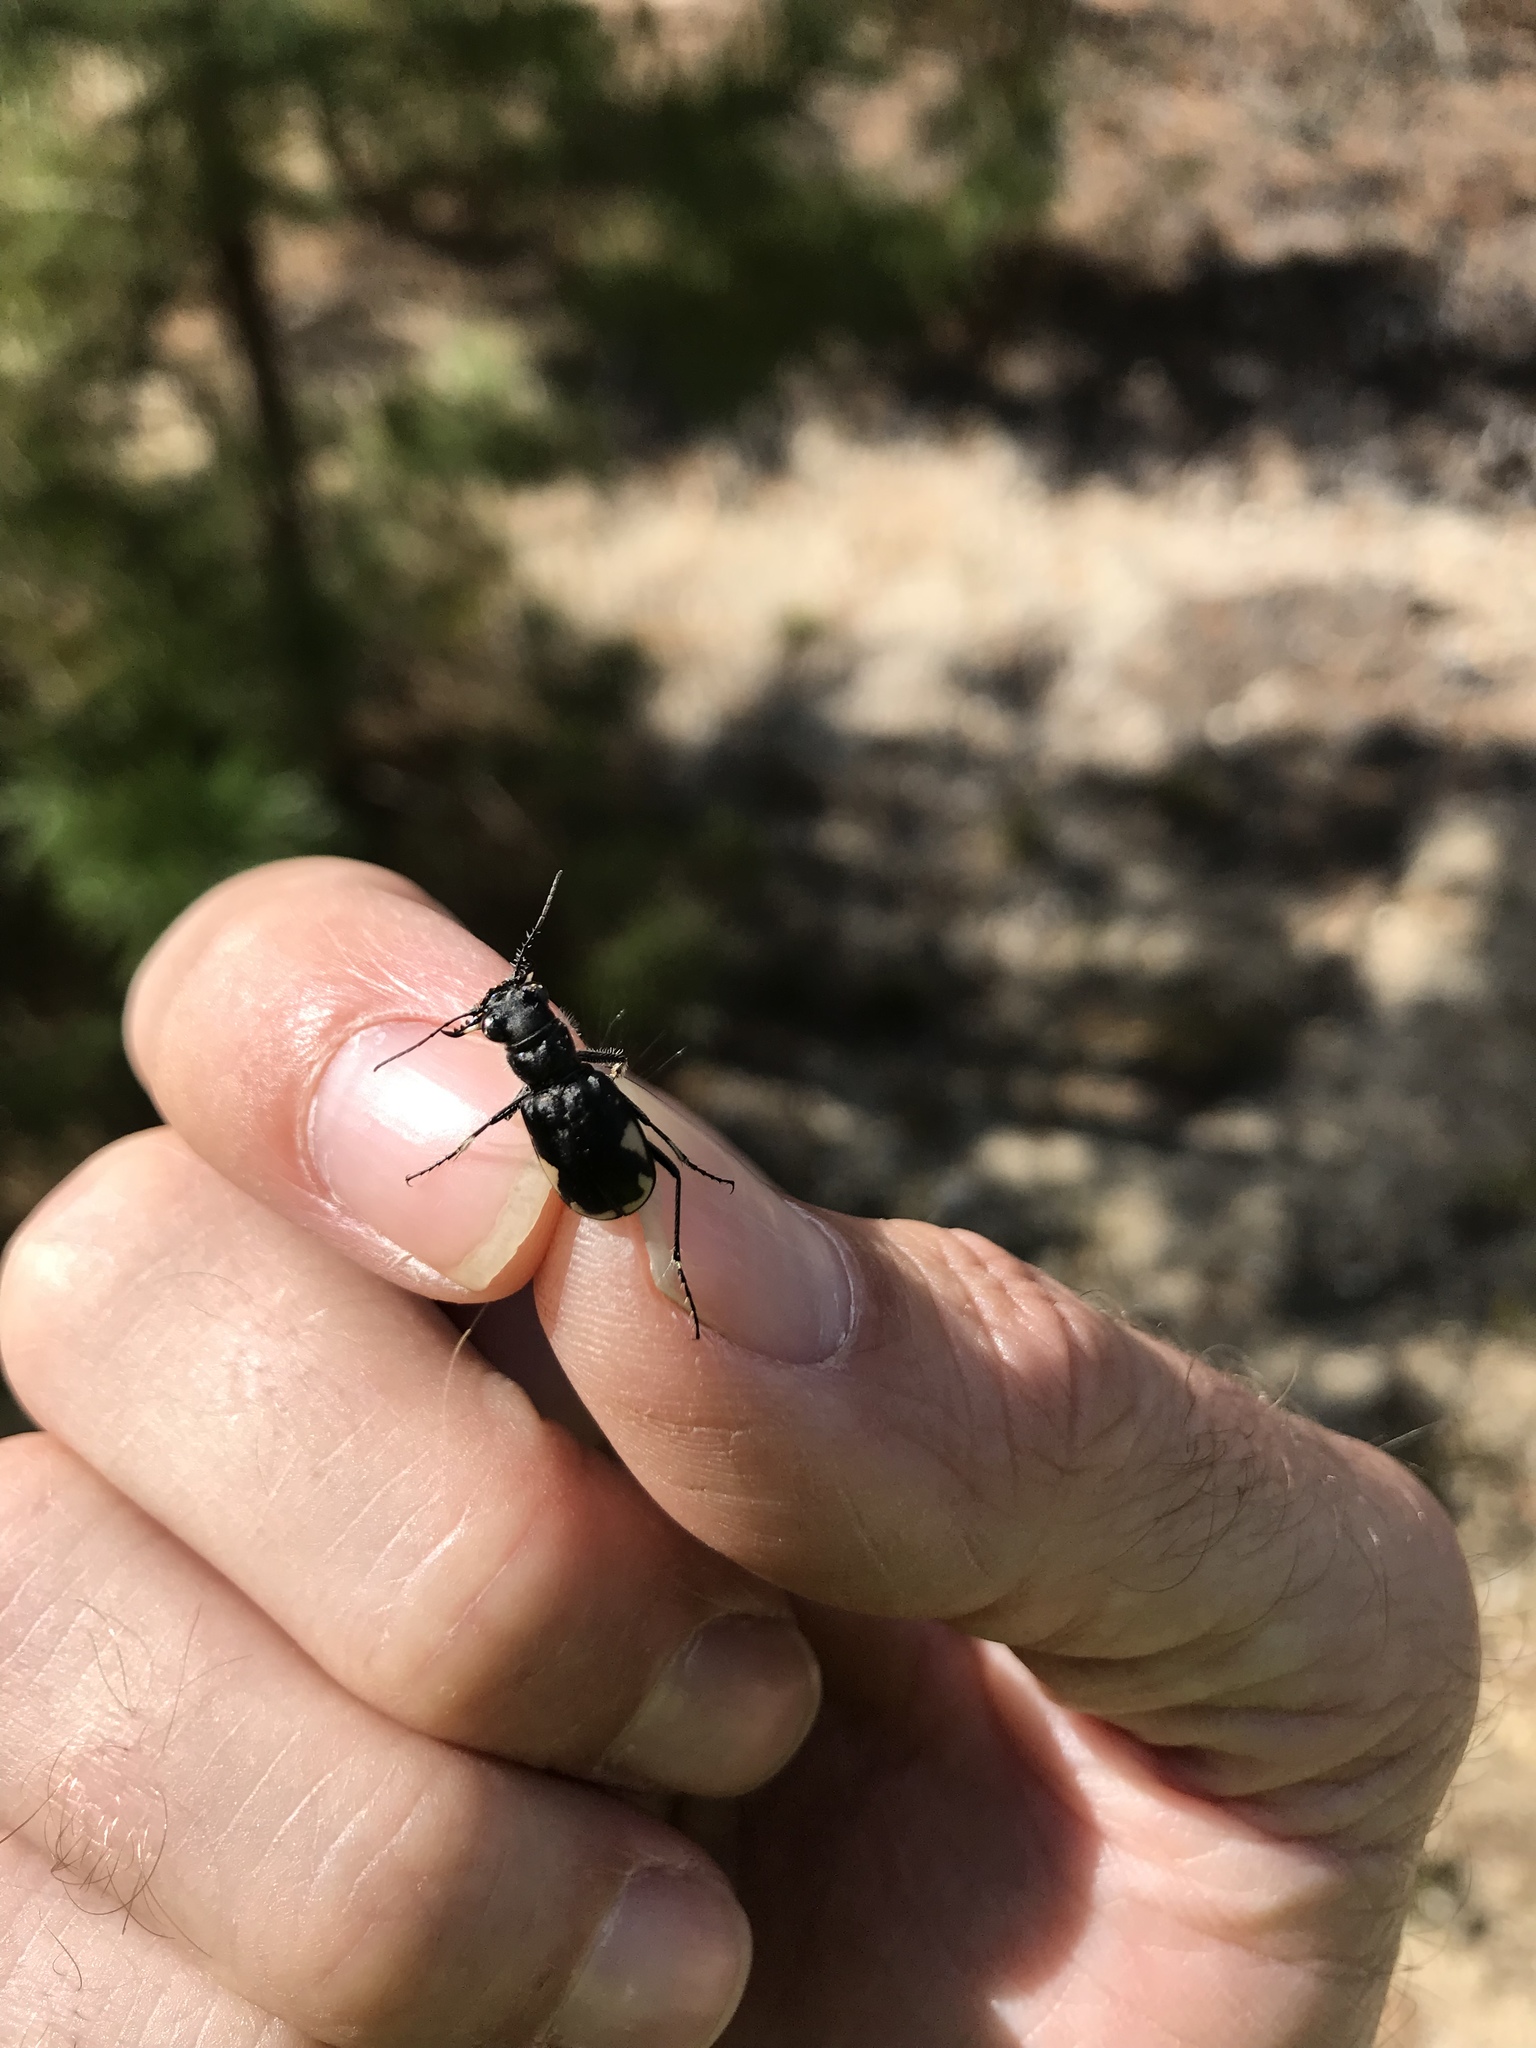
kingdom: Animalia
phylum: Arthropoda
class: Insecta
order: Coleoptera
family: Carabidae
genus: Cicindela
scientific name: Cicindela scutellaris
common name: Festive tiger beetle
